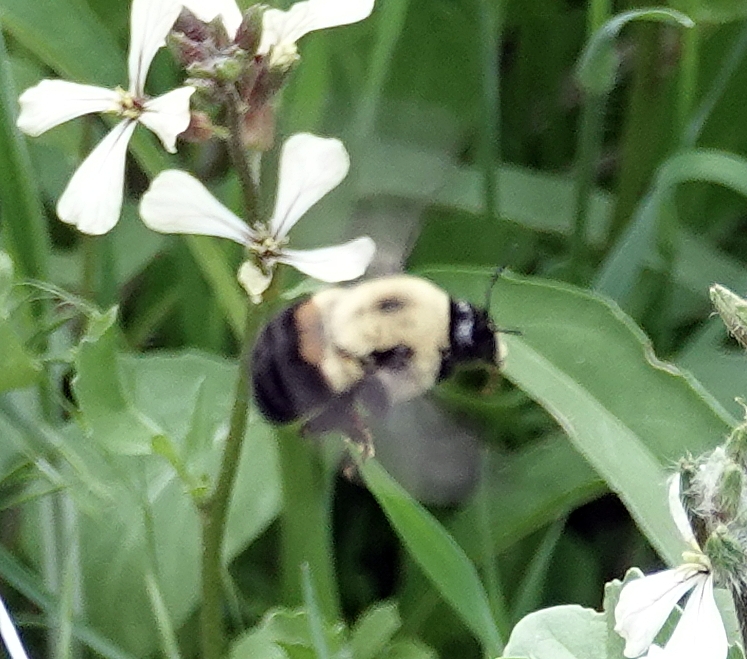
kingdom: Animalia
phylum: Arthropoda
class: Insecta
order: Hymenoptera
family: Apidae
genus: Bombus
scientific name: Bombus griseocollis
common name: Brown-belted bumble bee
